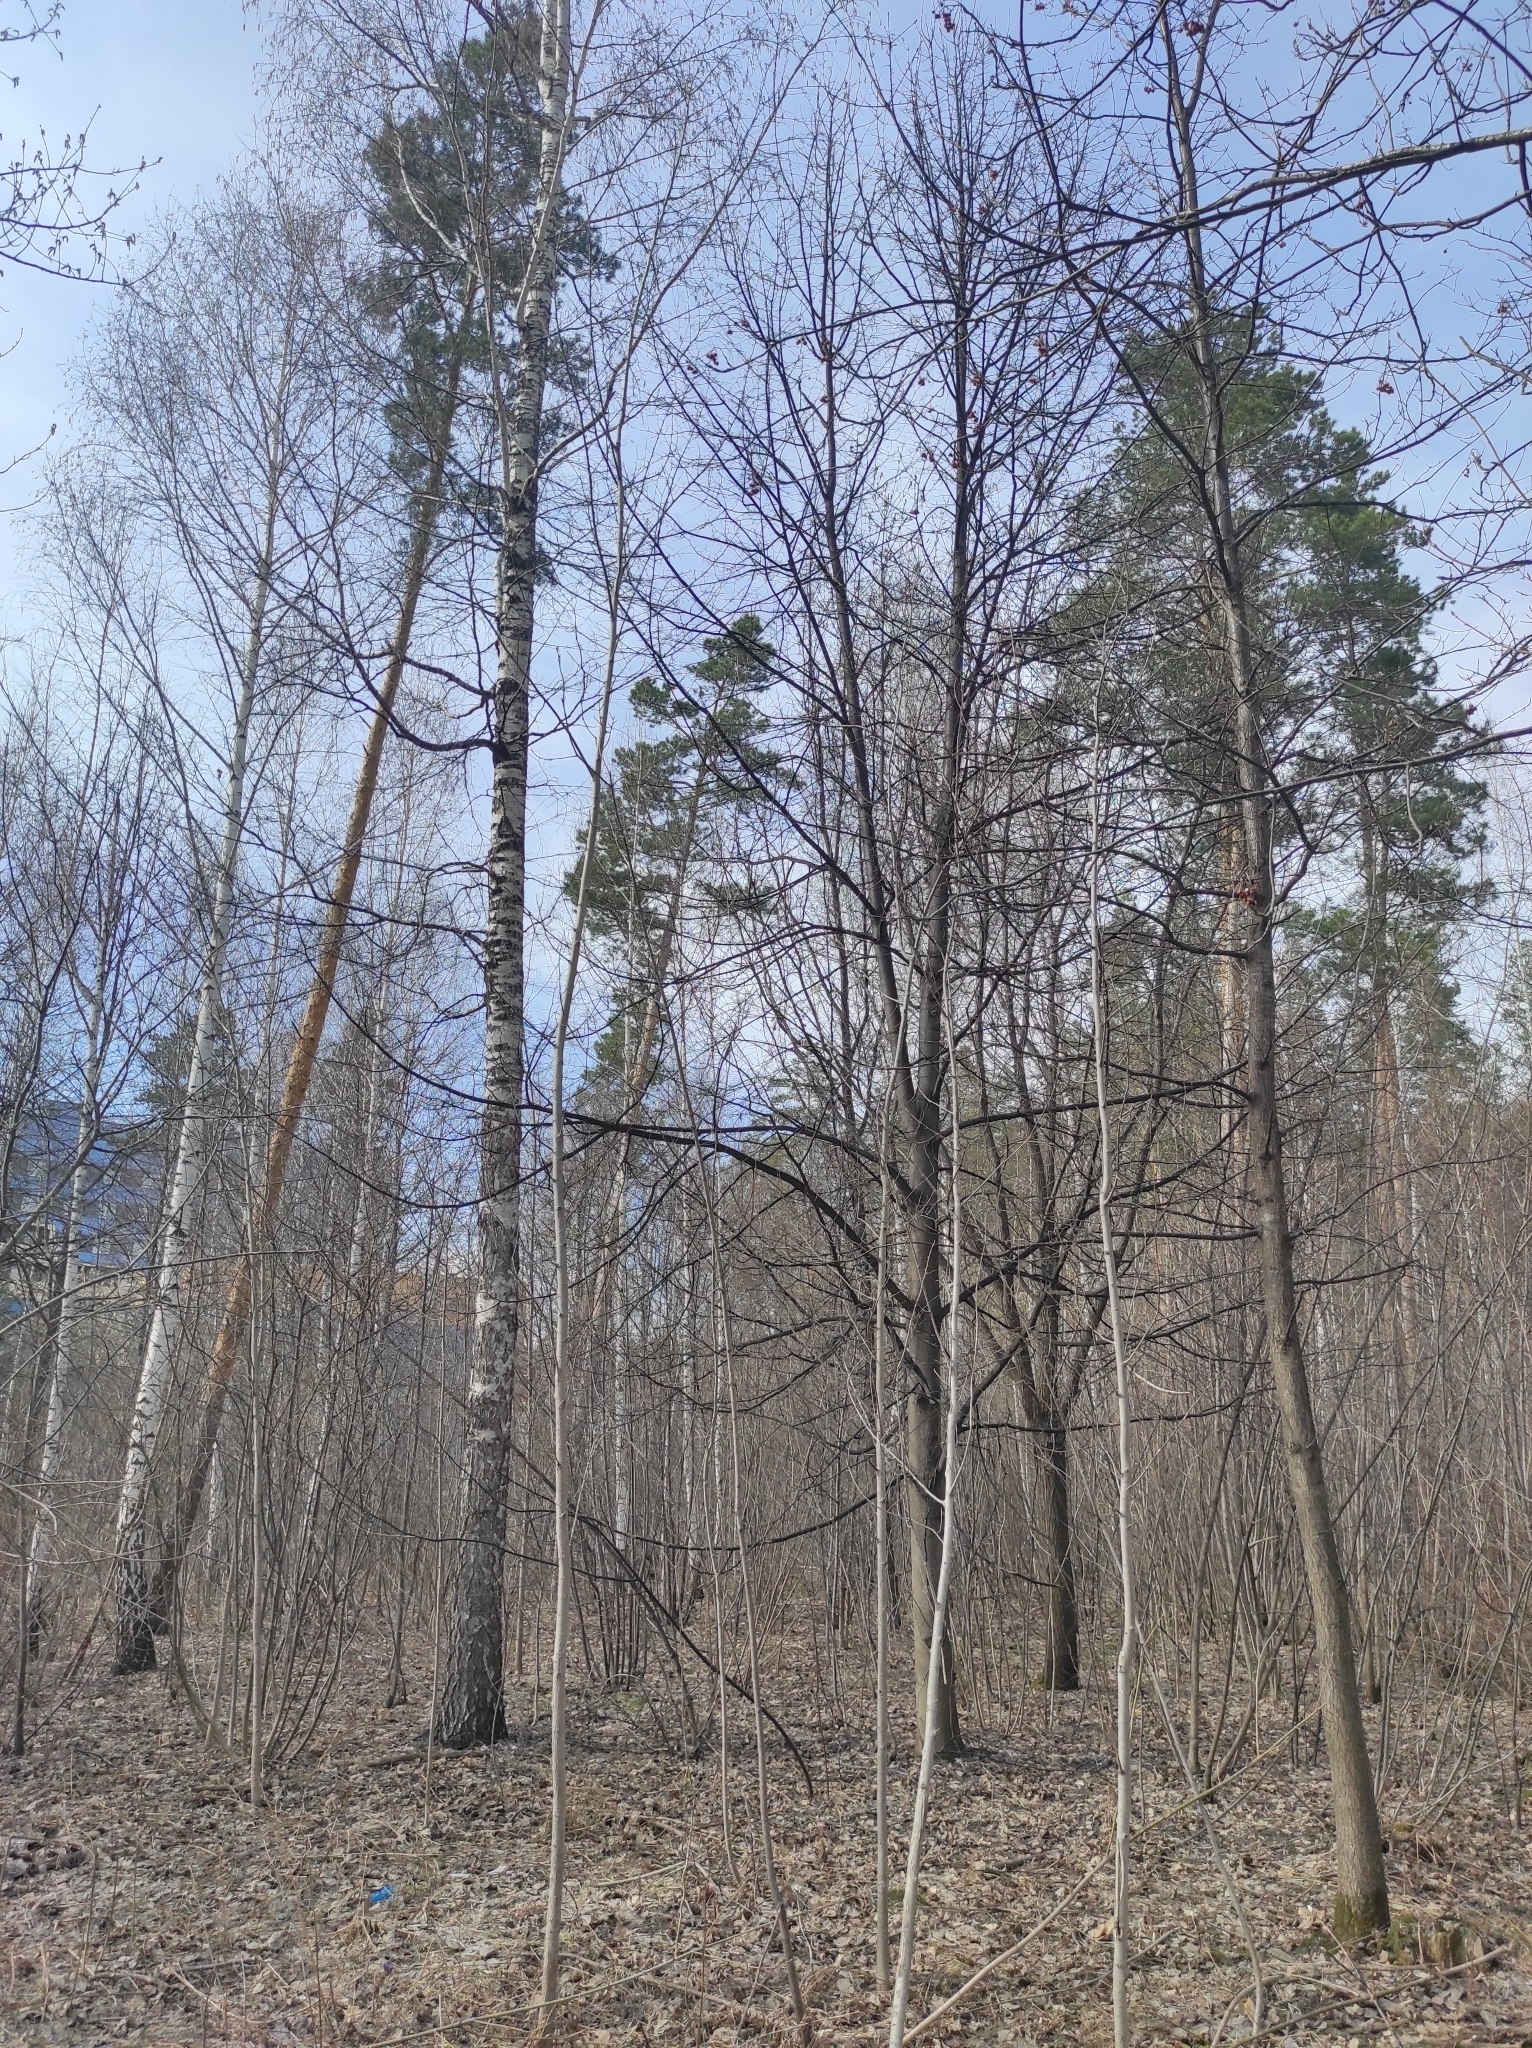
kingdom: Plantae
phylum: Tracheophyta
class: Pinopsida
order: Pinales
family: Pinaceae
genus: Pinus
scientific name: Pinus sylvestris
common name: Scots pine
